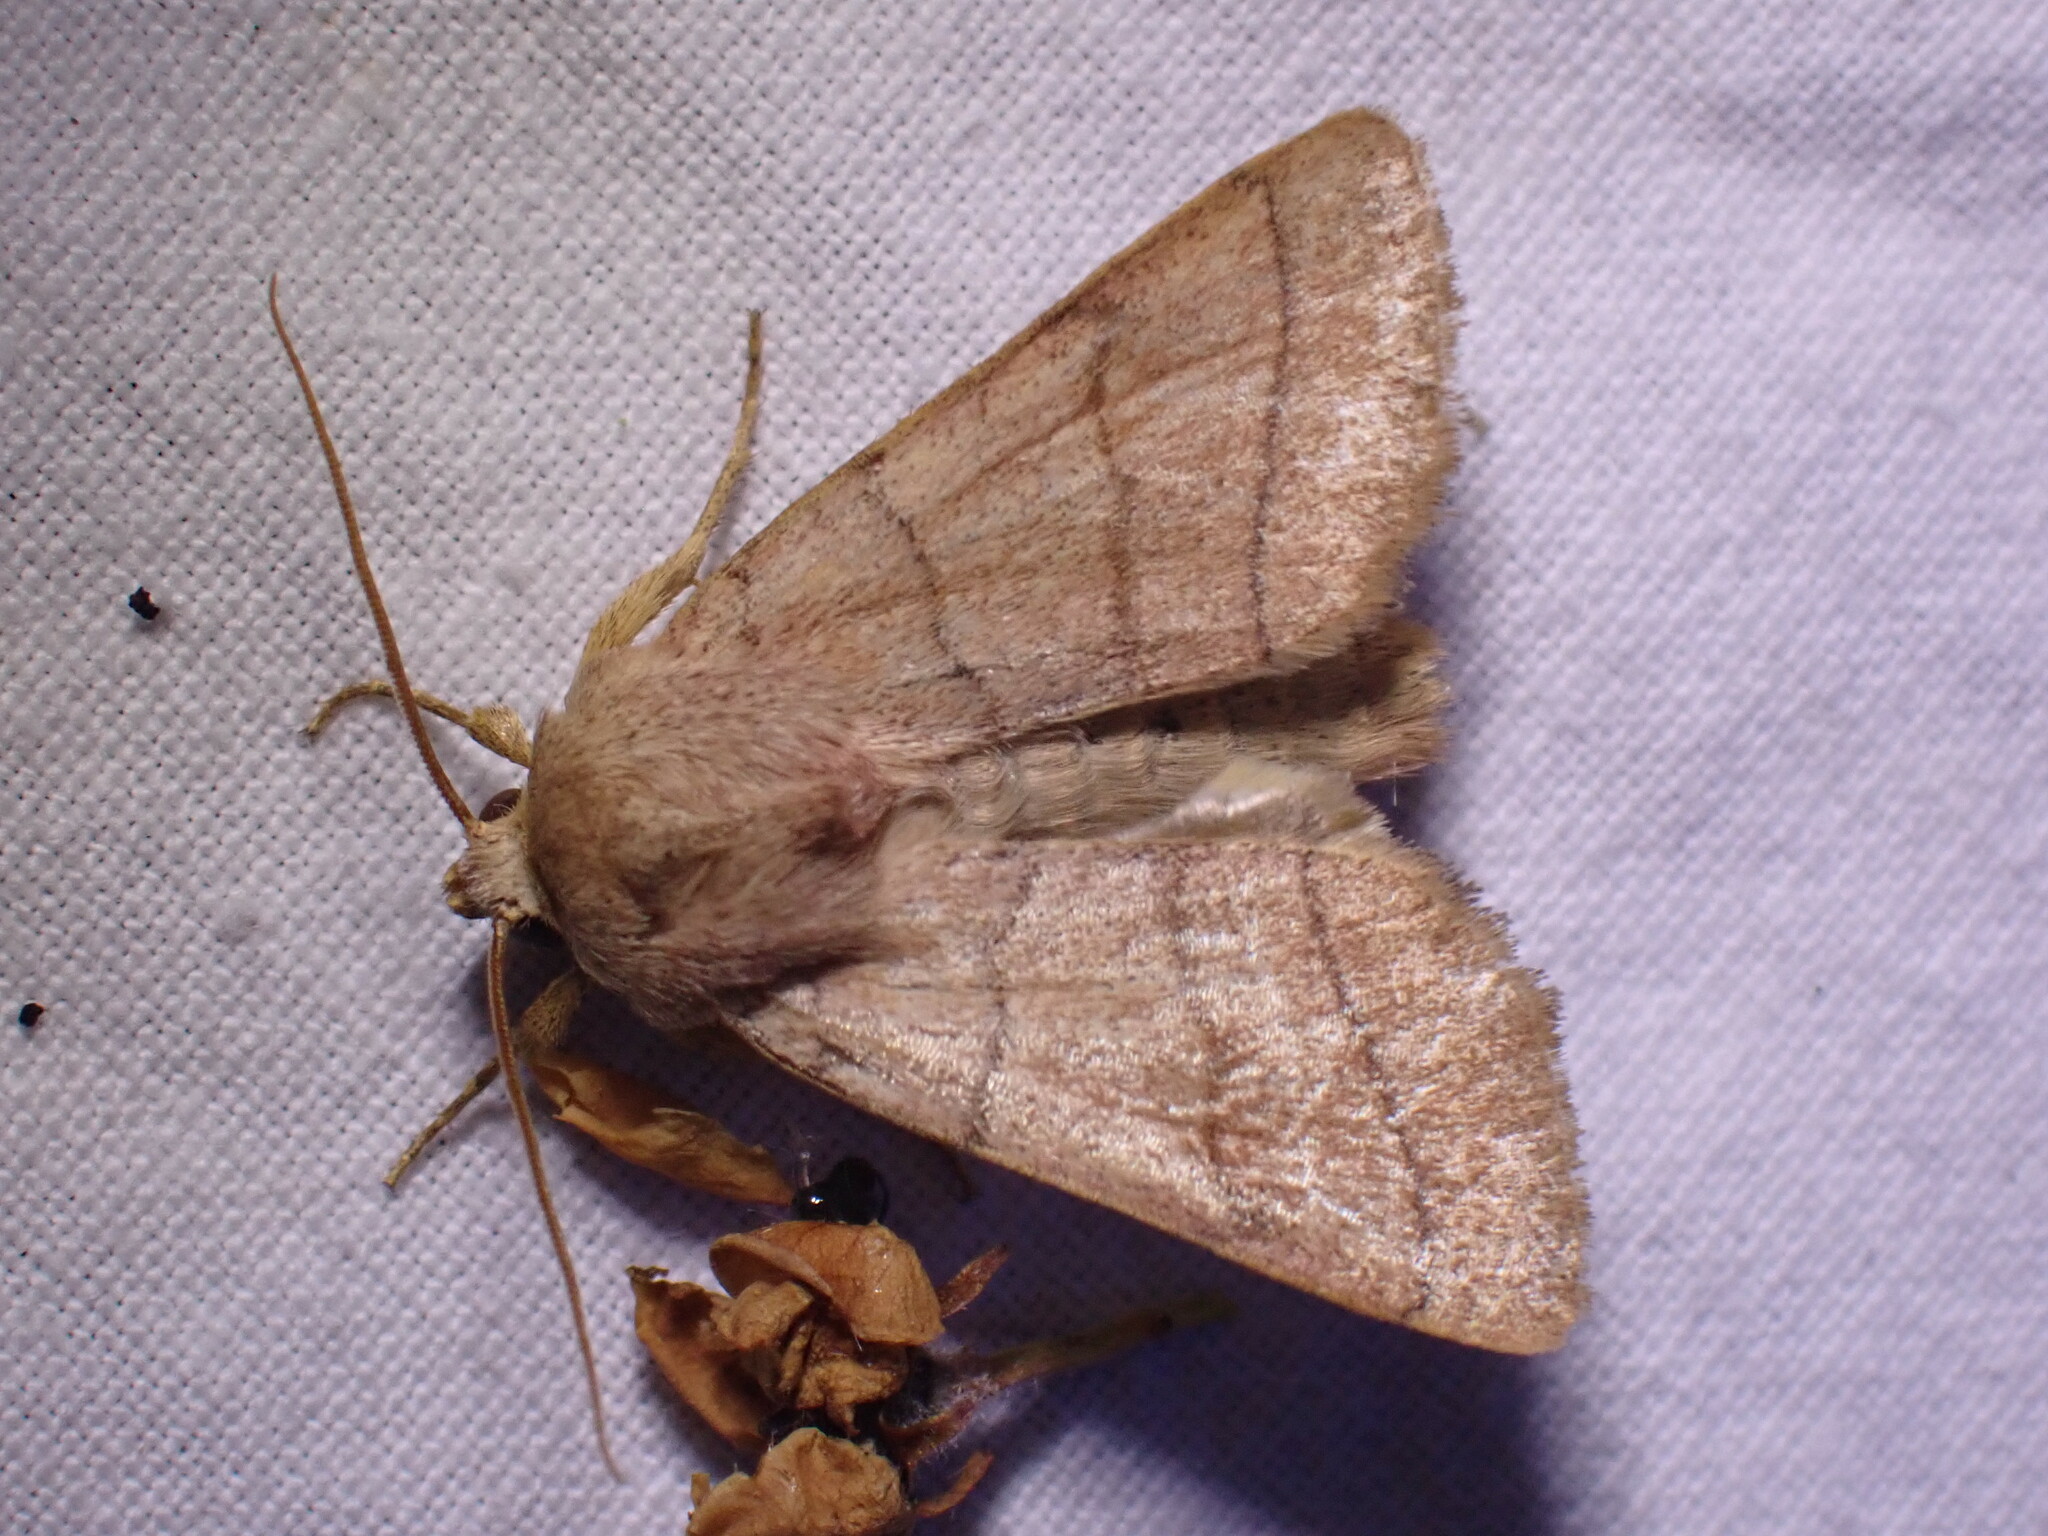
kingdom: Animalia
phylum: Arthropoda
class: Insecta
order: Lepidoptera
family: Noctuidae
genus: Charanyca
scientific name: Charanyca trigrammica
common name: Treble lines
